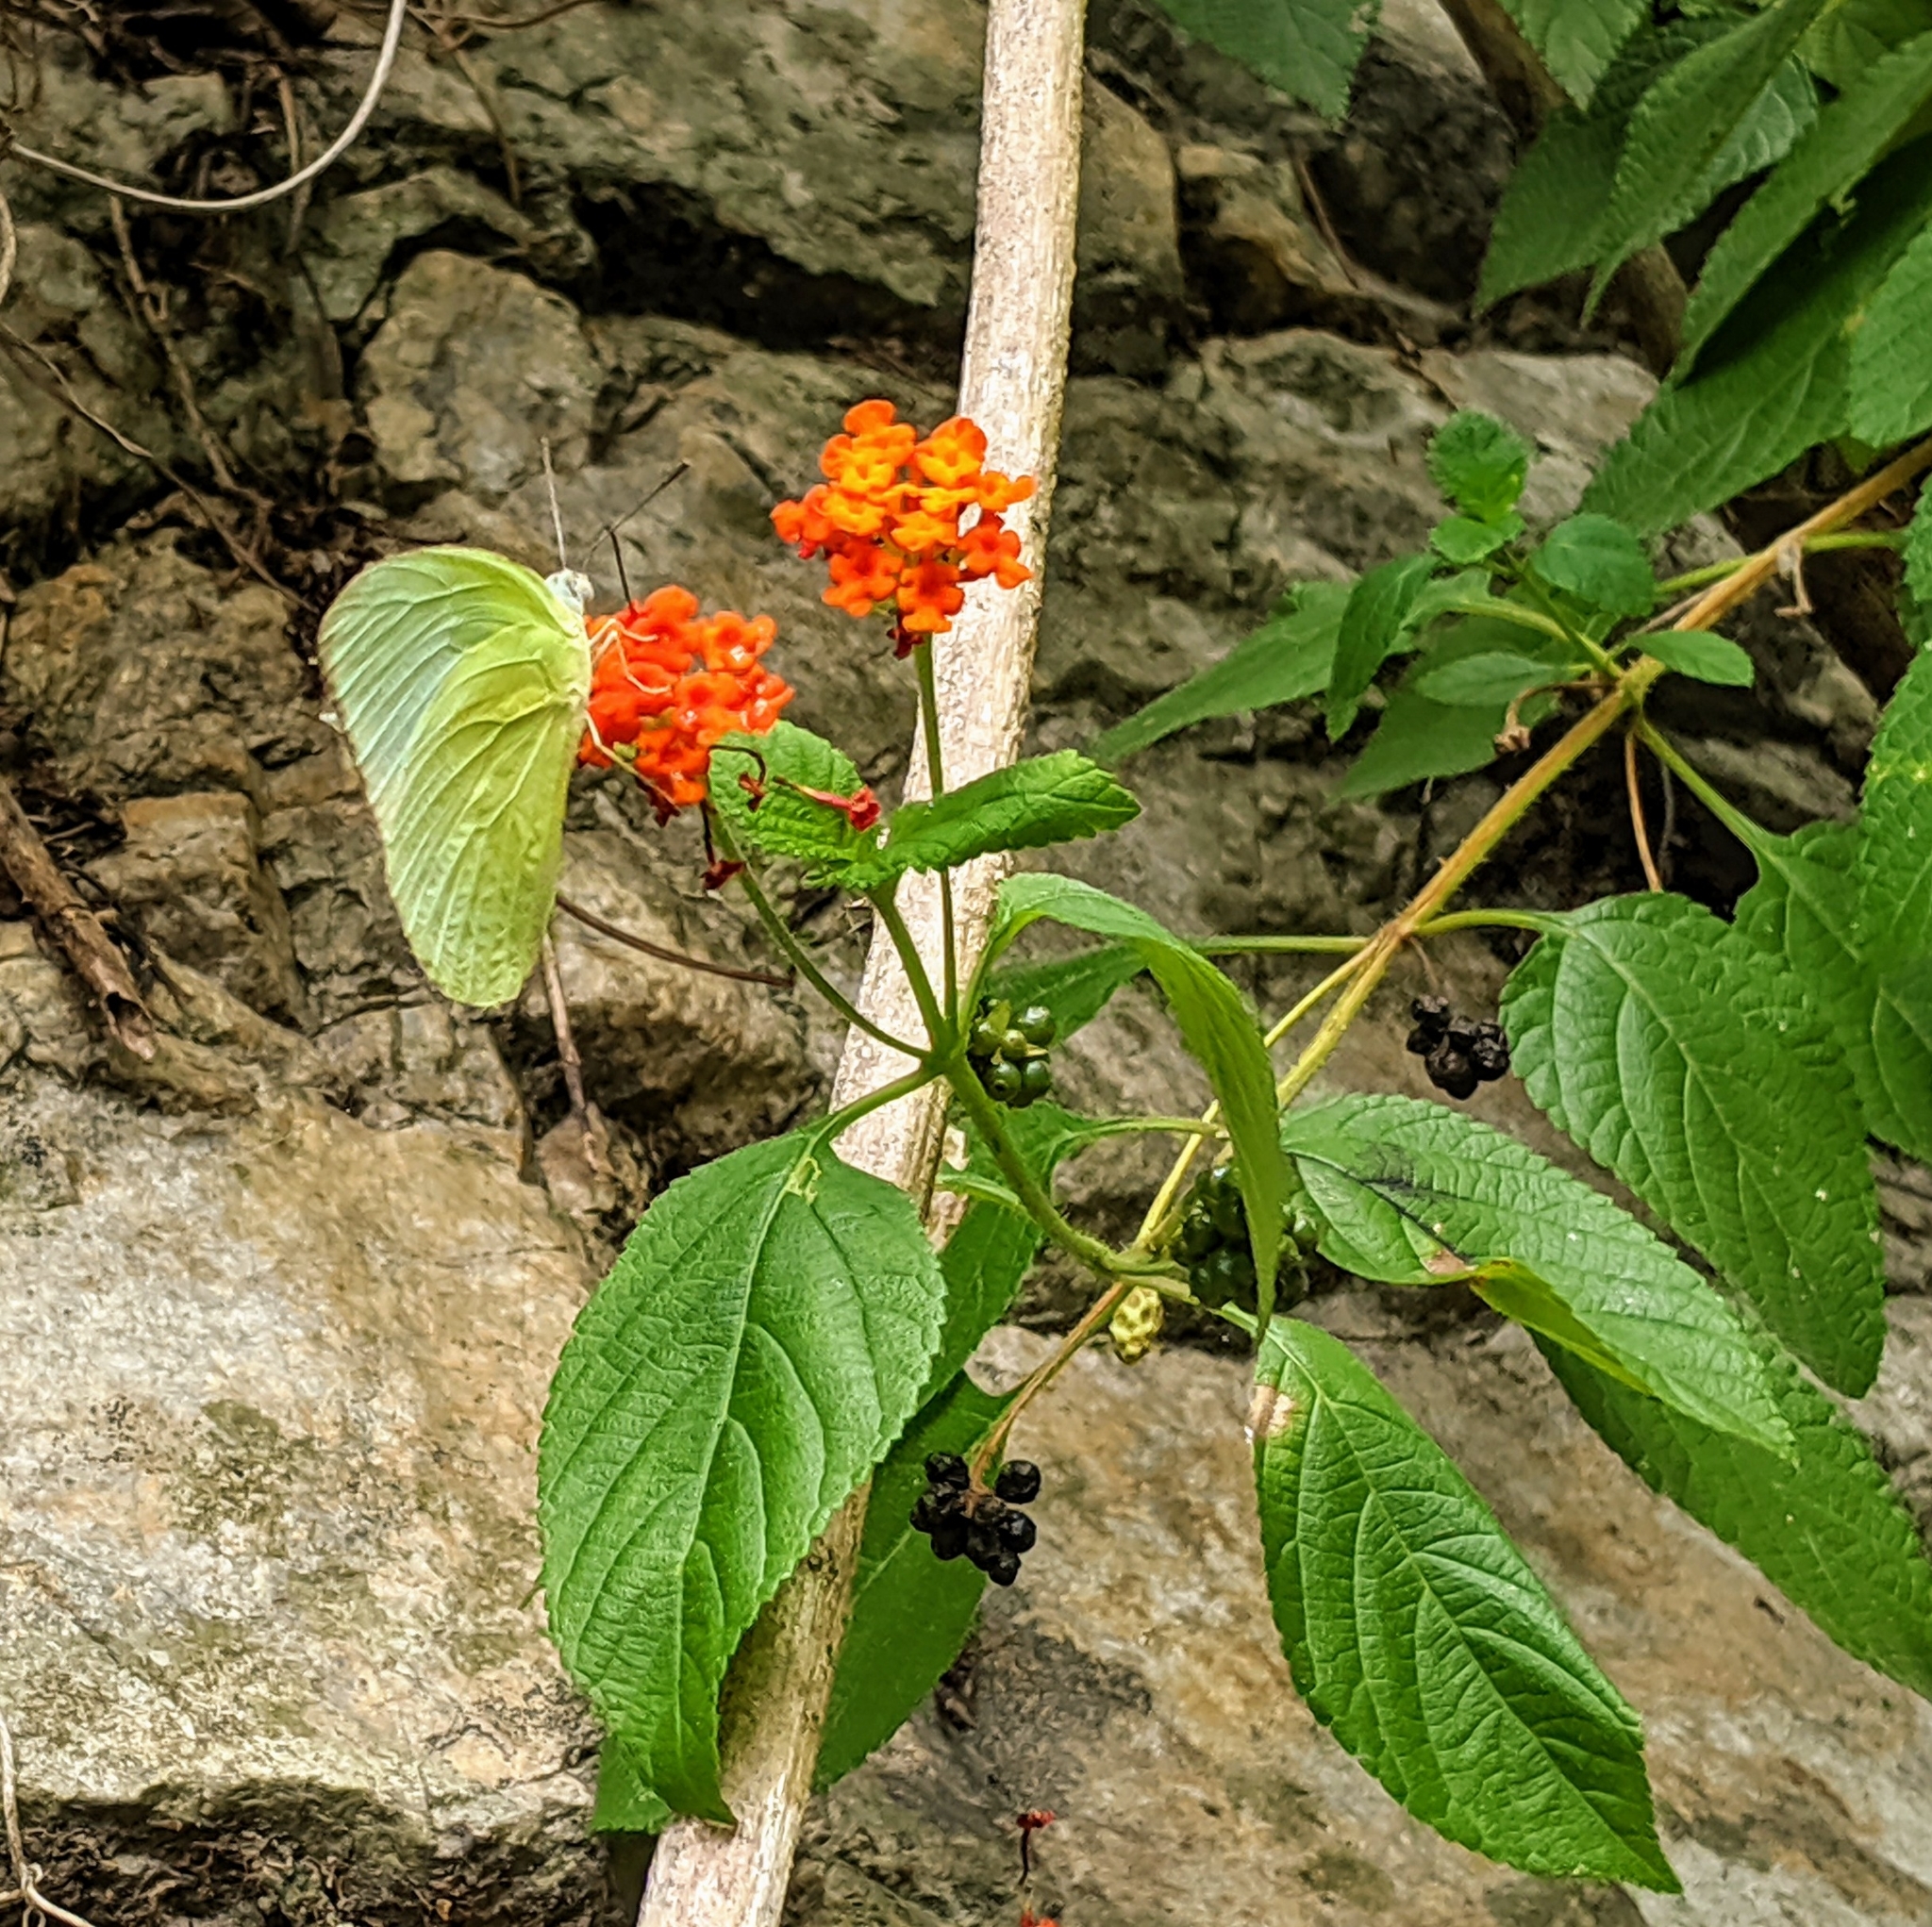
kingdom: Animalia
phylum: Arthropoda
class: Insecta
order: Lepidoptera
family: Pieridae
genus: Catopsilia
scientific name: Catopsilia pomona
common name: Common emigrant
